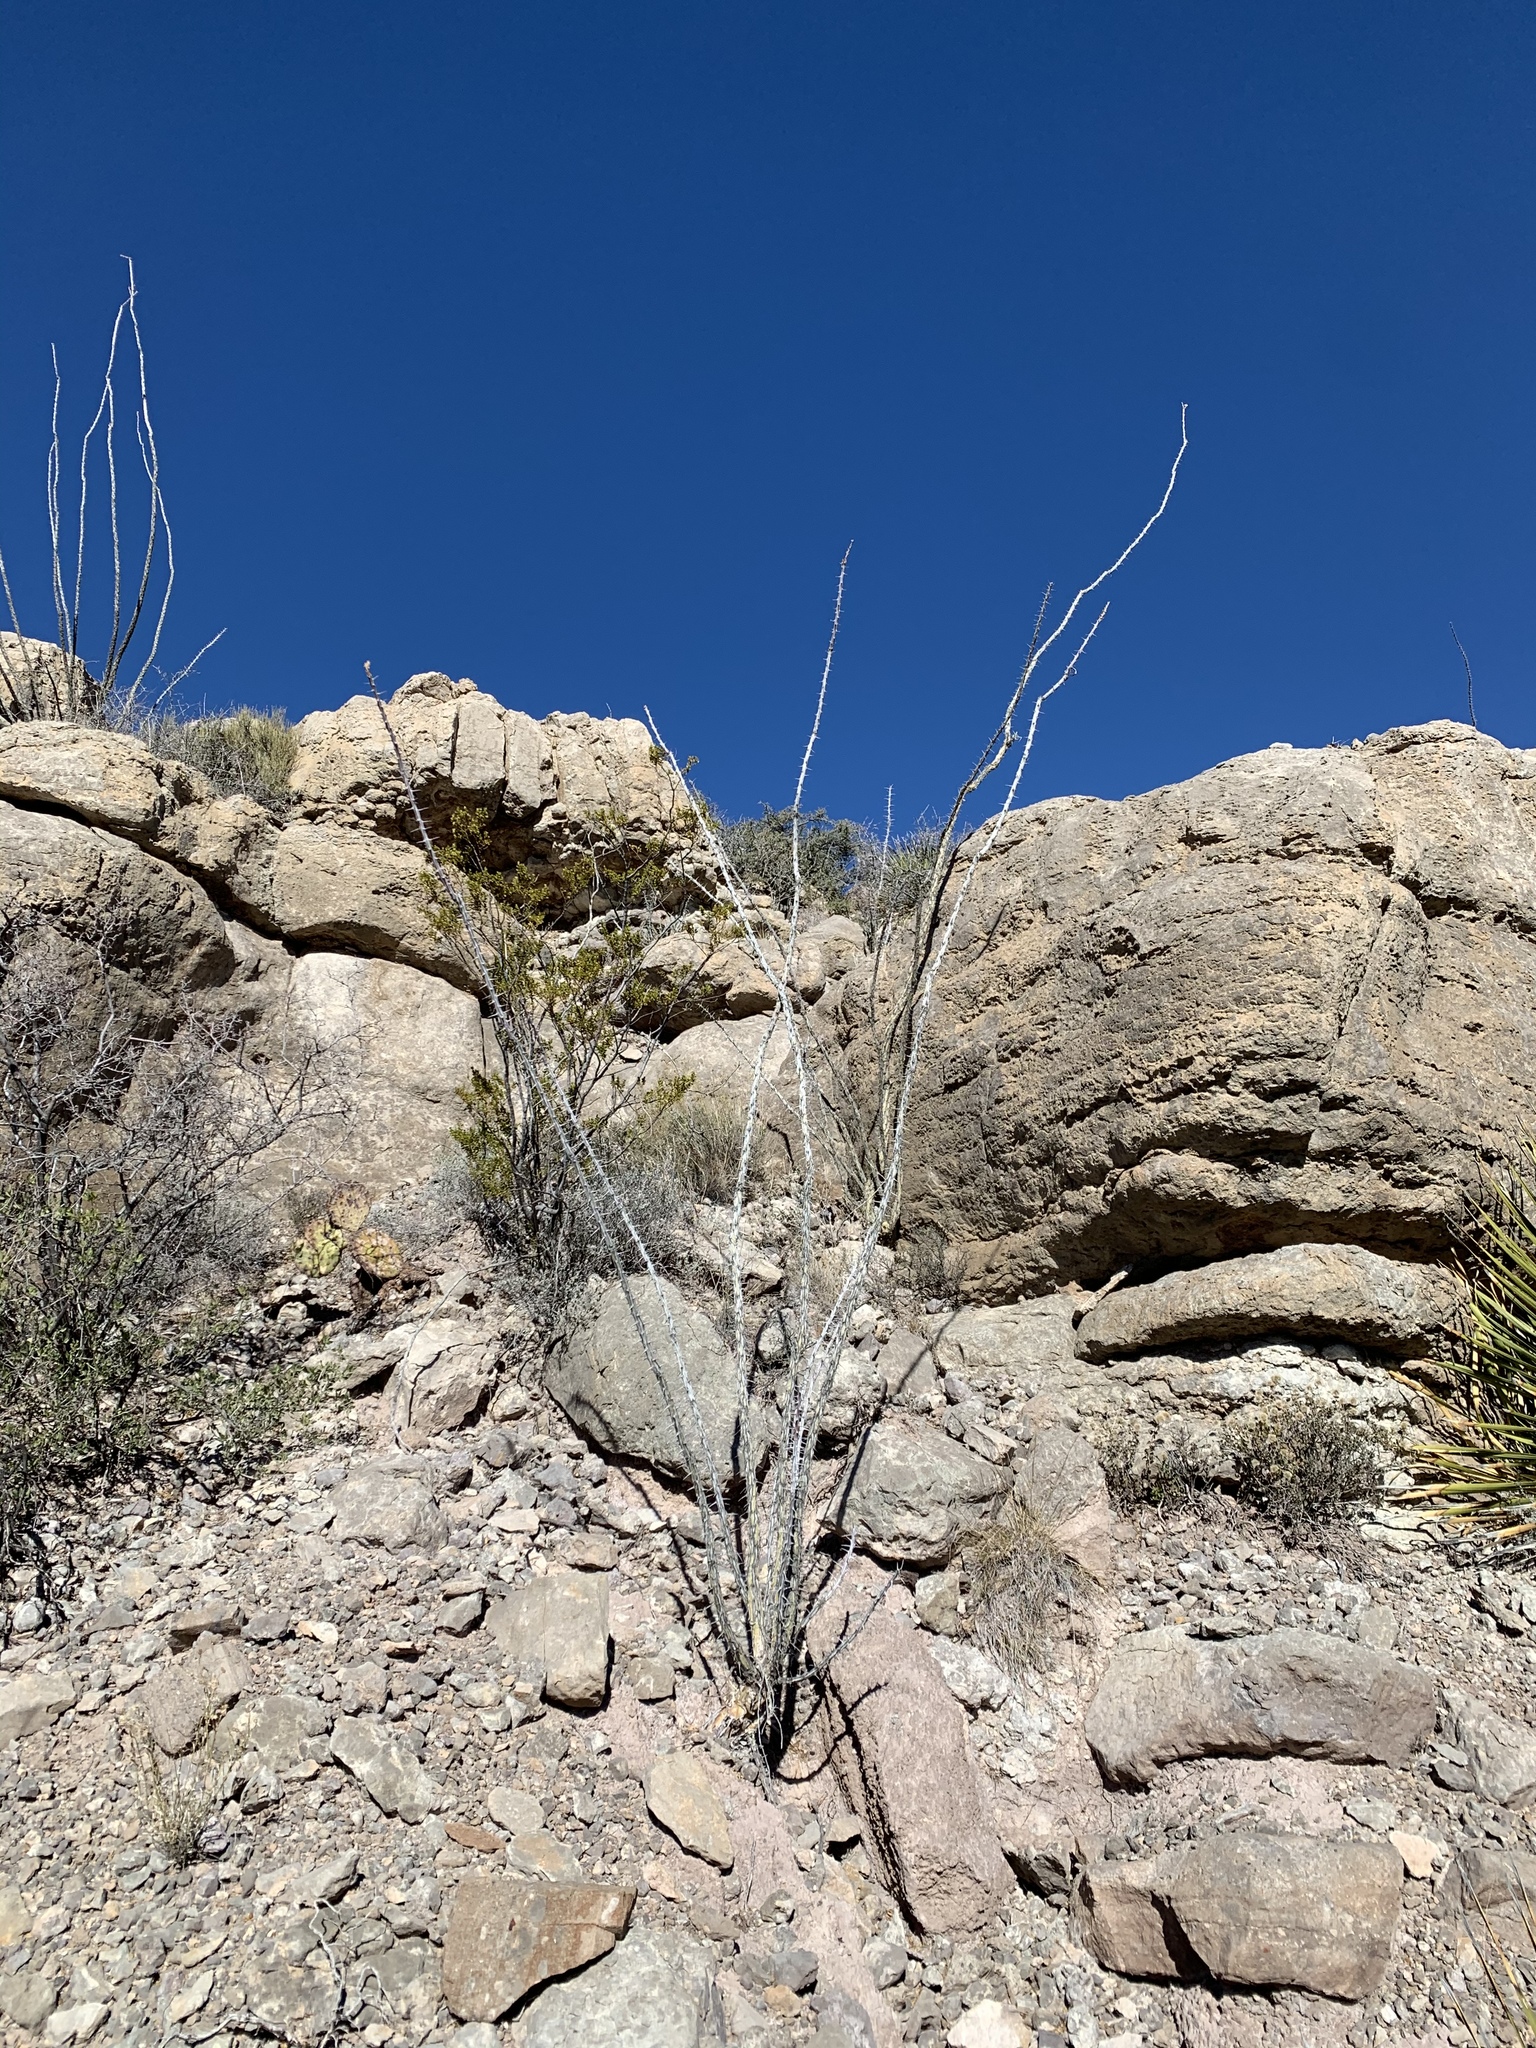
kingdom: Plantae
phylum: Tracheophyta
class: Magnoliopsida
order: Ericales
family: Fouquieriaceae
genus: Fouquieria
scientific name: Fouquieria splendens
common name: Vine-cactus
